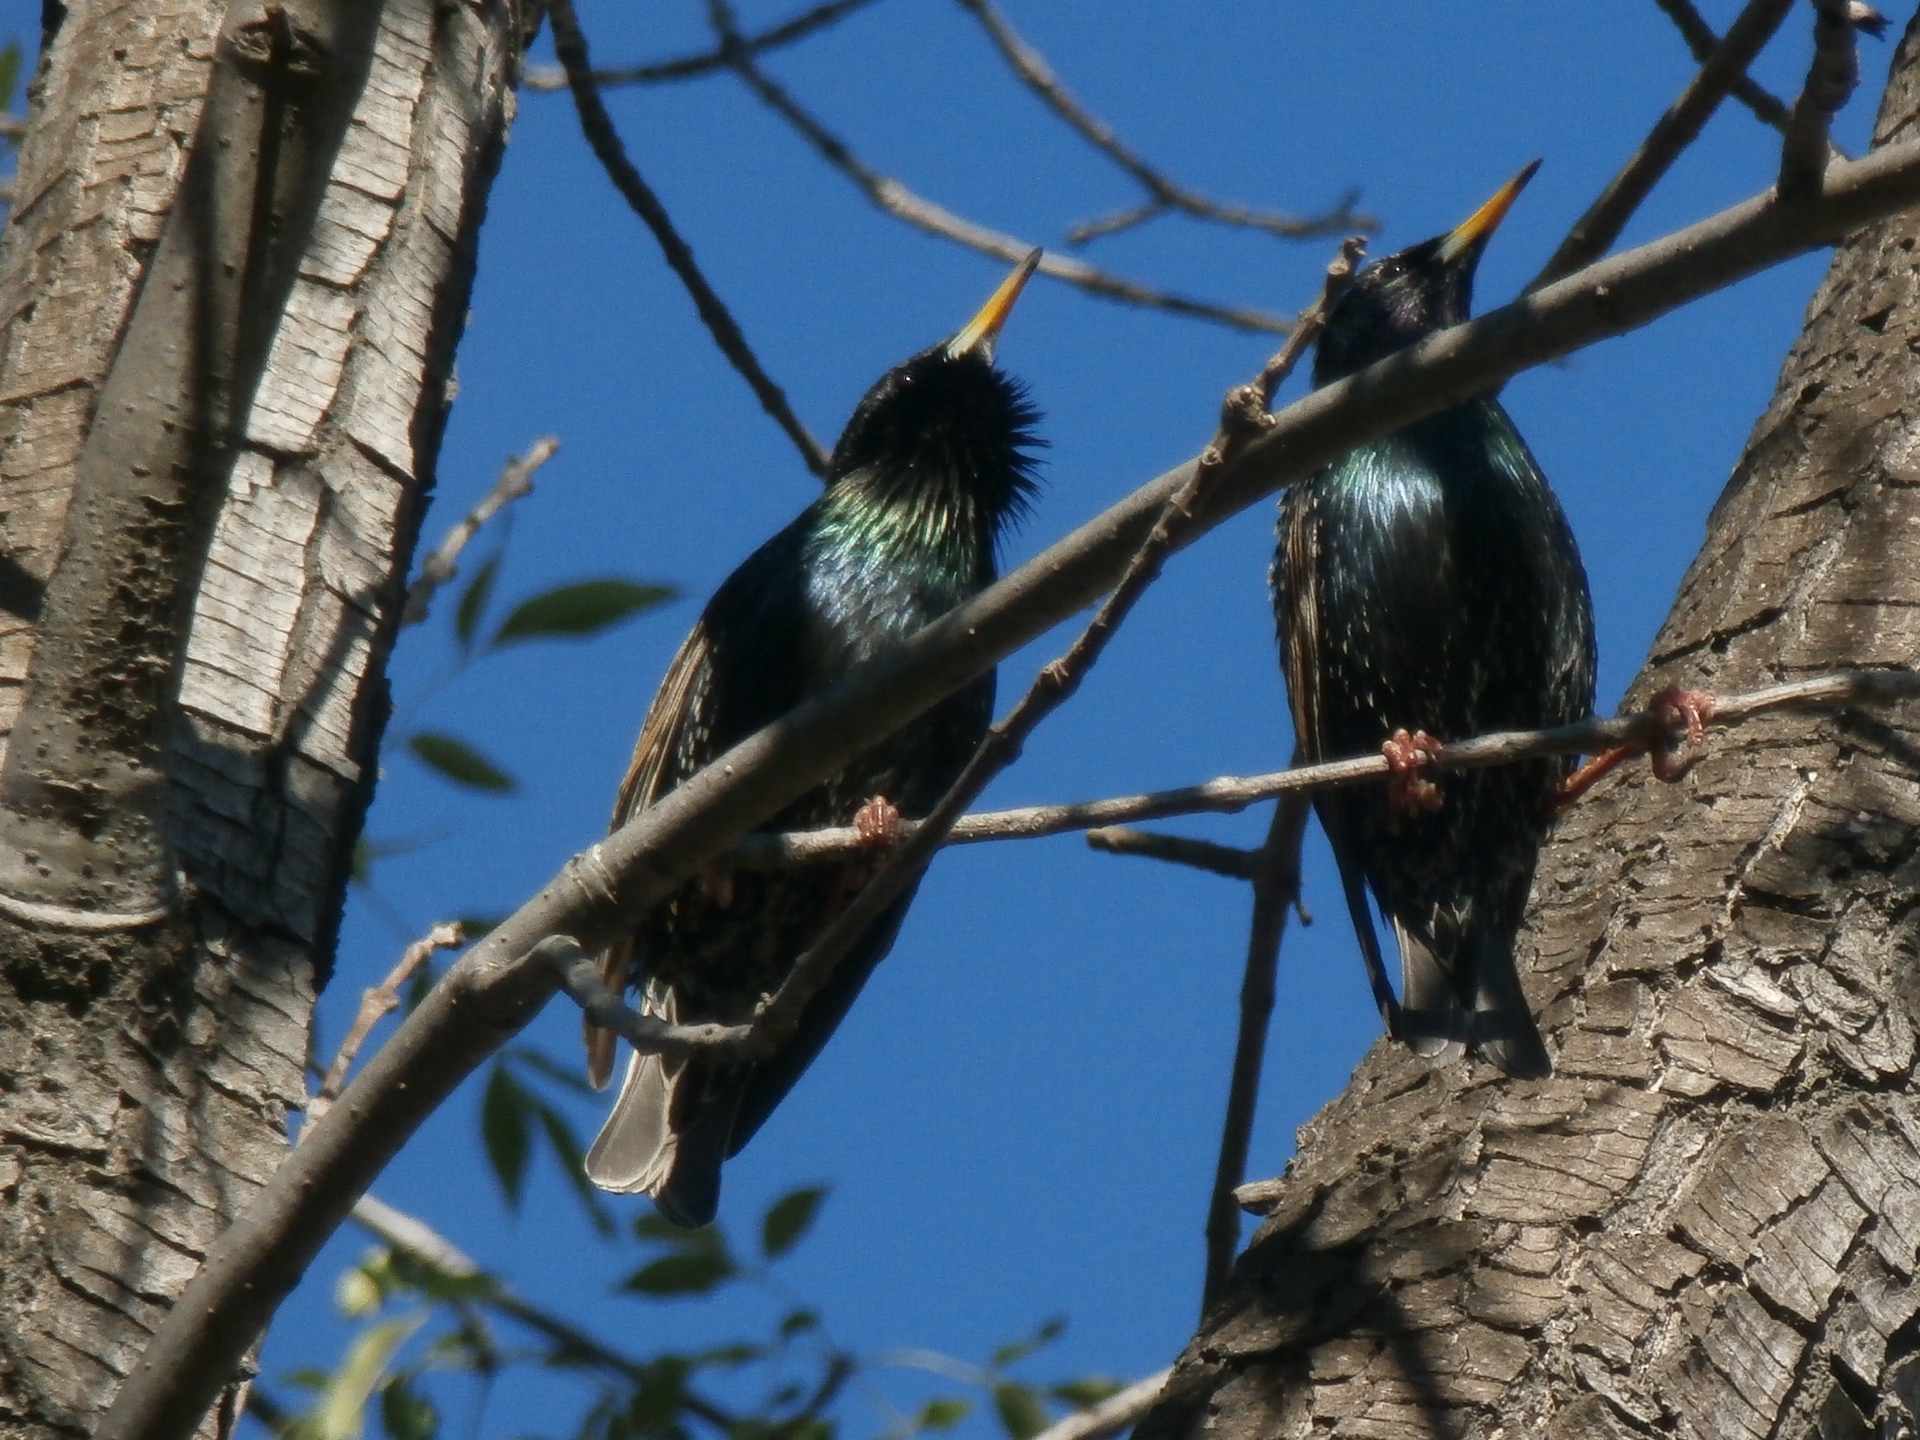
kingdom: Animalia
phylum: Chordata
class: Aves
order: Passeriformes
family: Sturnidae
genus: Sturnus
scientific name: Sturnus vulgaris
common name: Common starling
